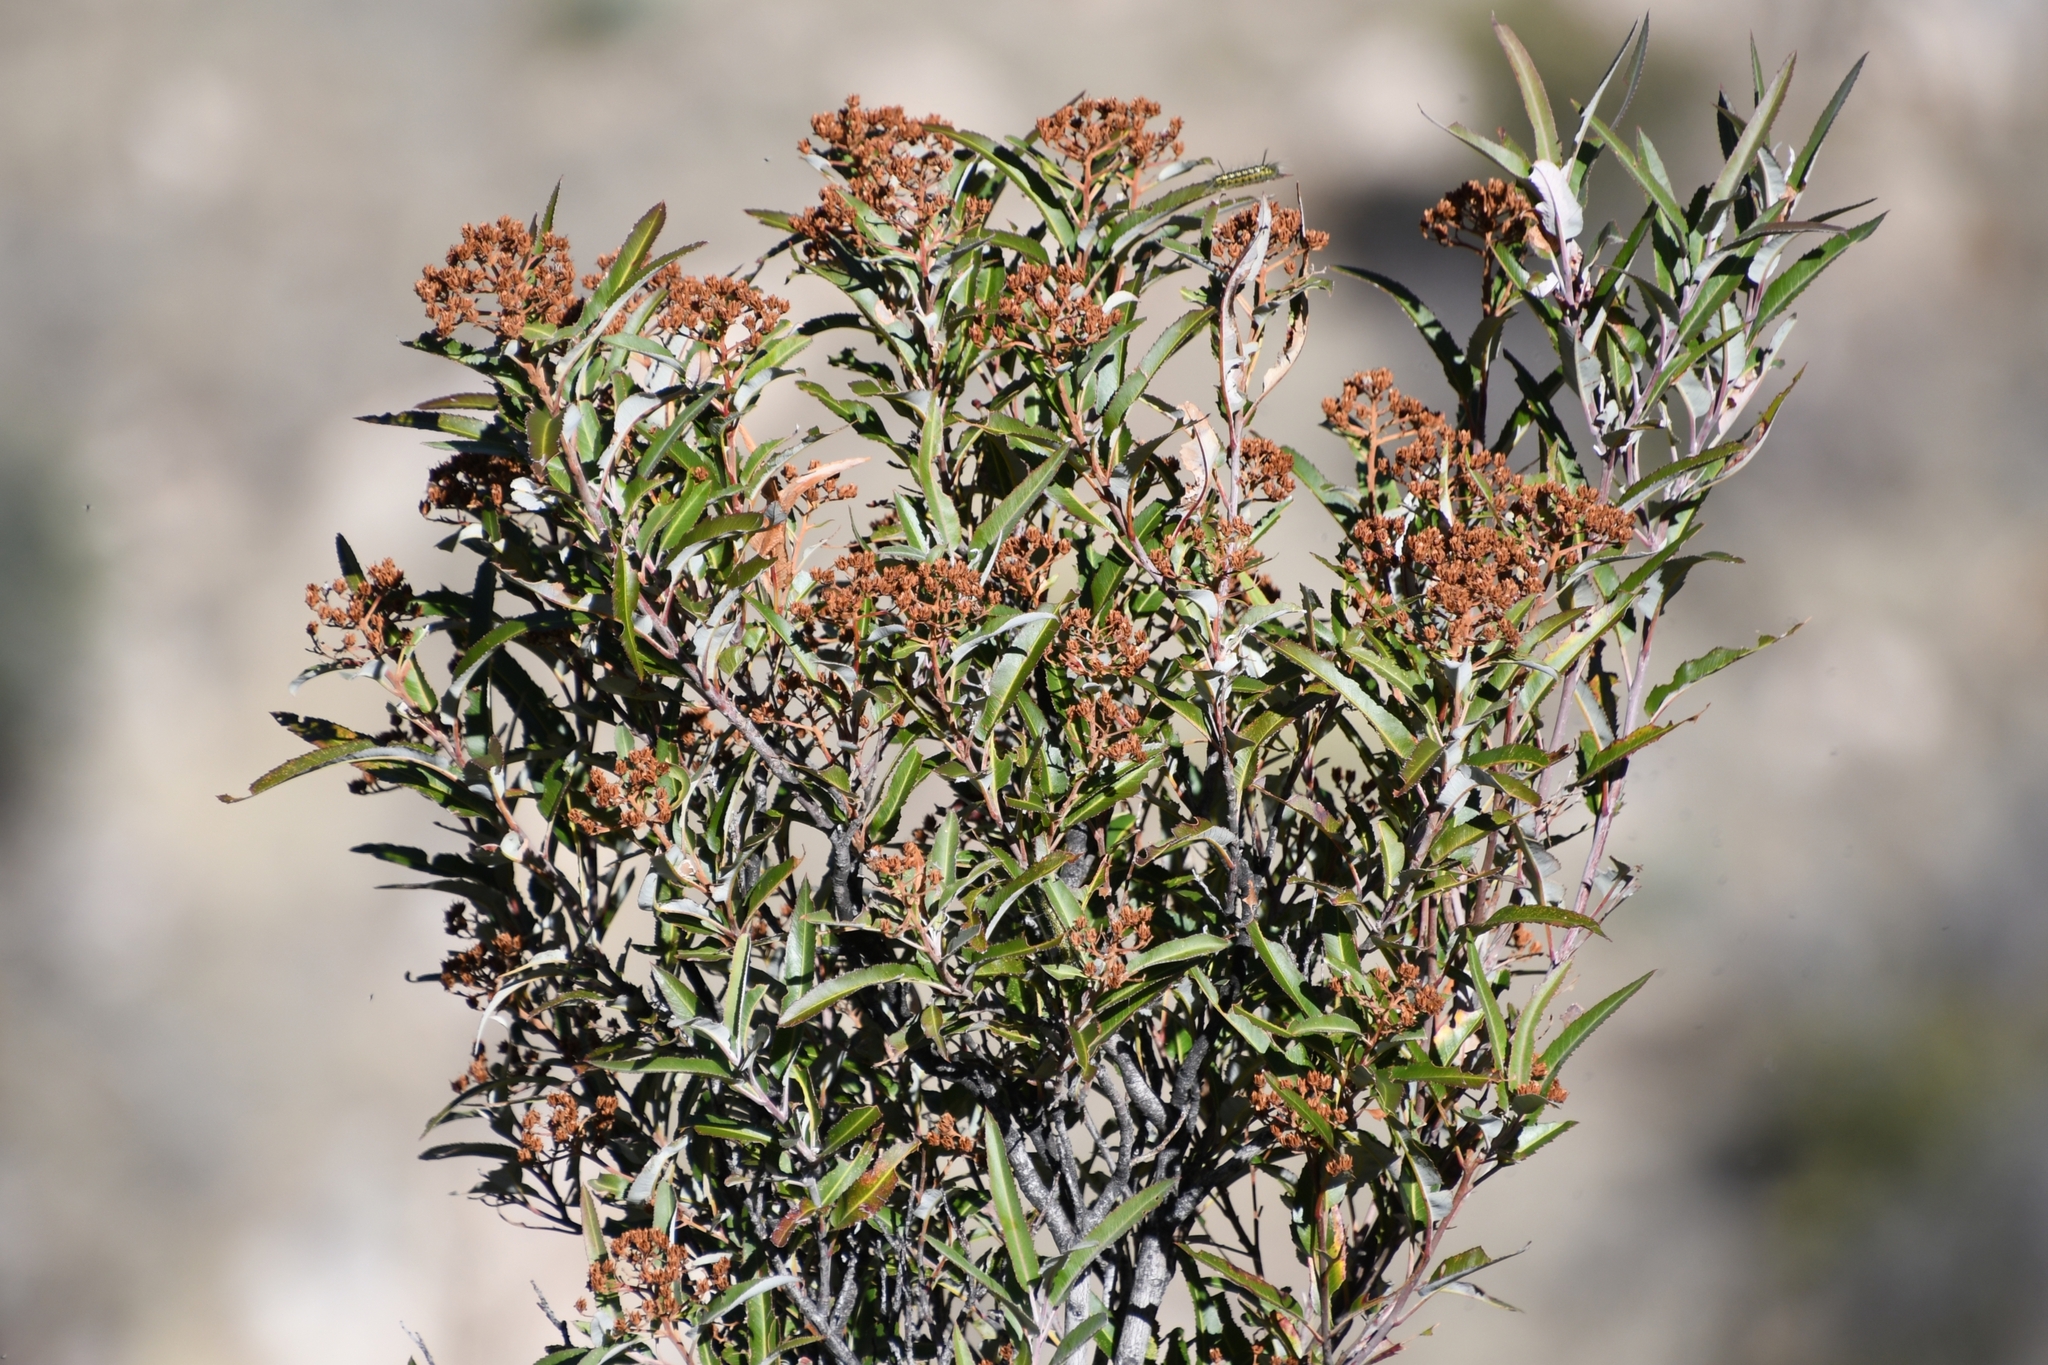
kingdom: Plantae
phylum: Tracheophyta
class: Magnoliopsida
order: Rosales
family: Rosaceae
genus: Vauquelinia
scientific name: Vauquelinia californica
